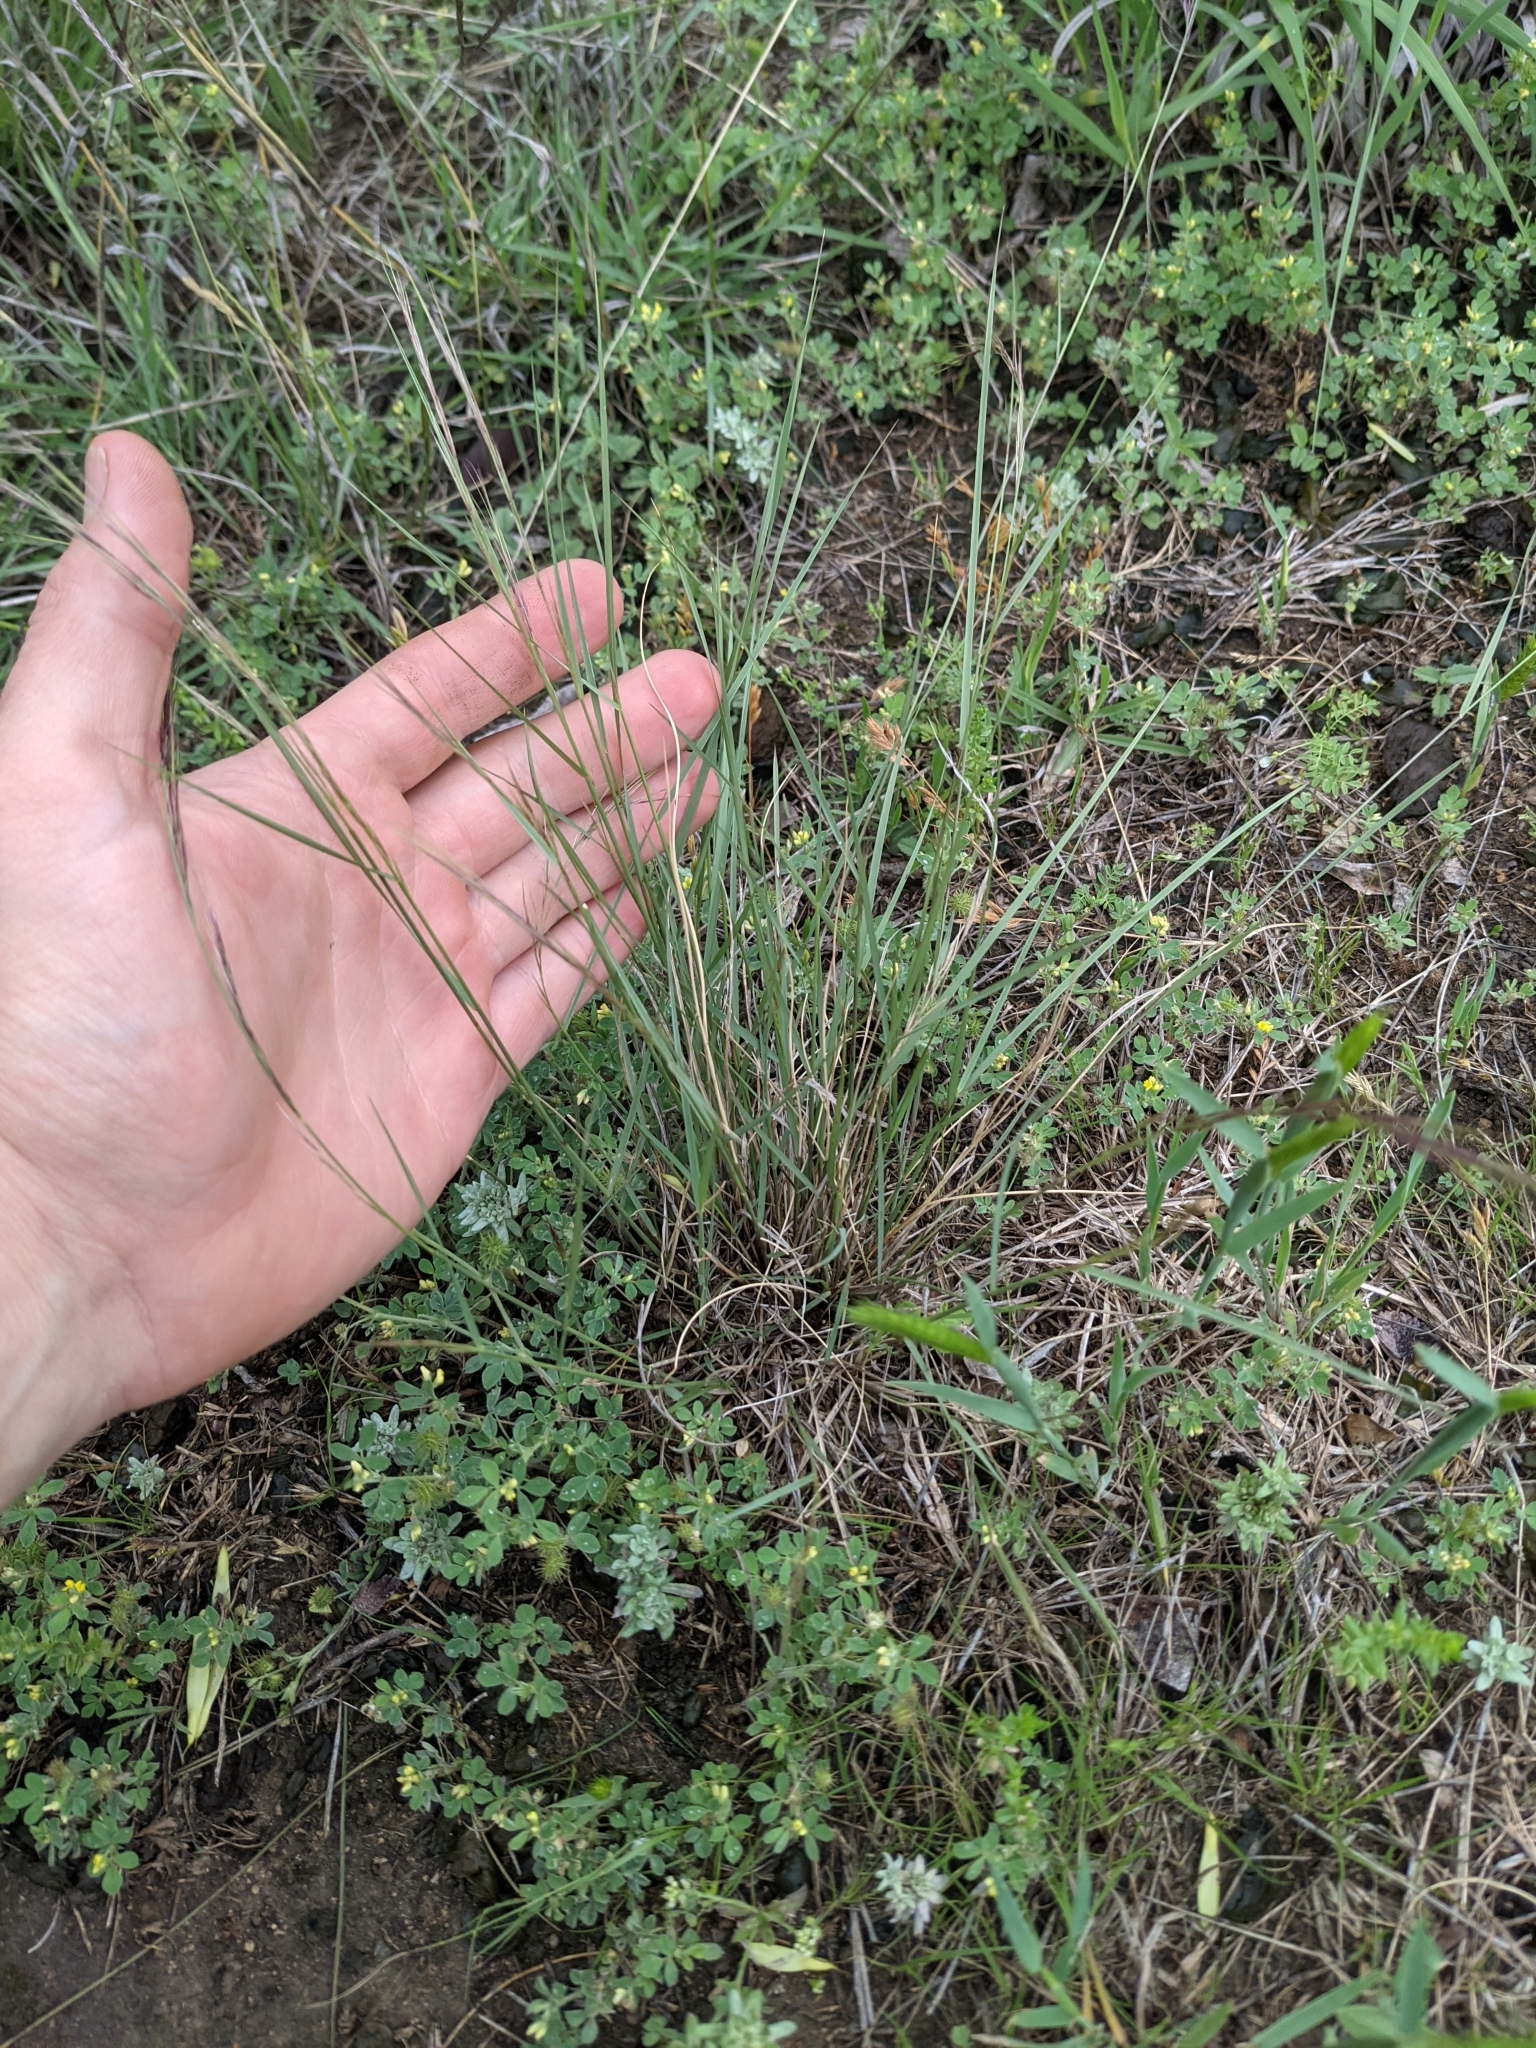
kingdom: Plantae
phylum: Tracheophyta
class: Liliopsida
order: Poales
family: Poaceae
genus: Aristida
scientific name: Aristida purpurea
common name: Purple threeawn
